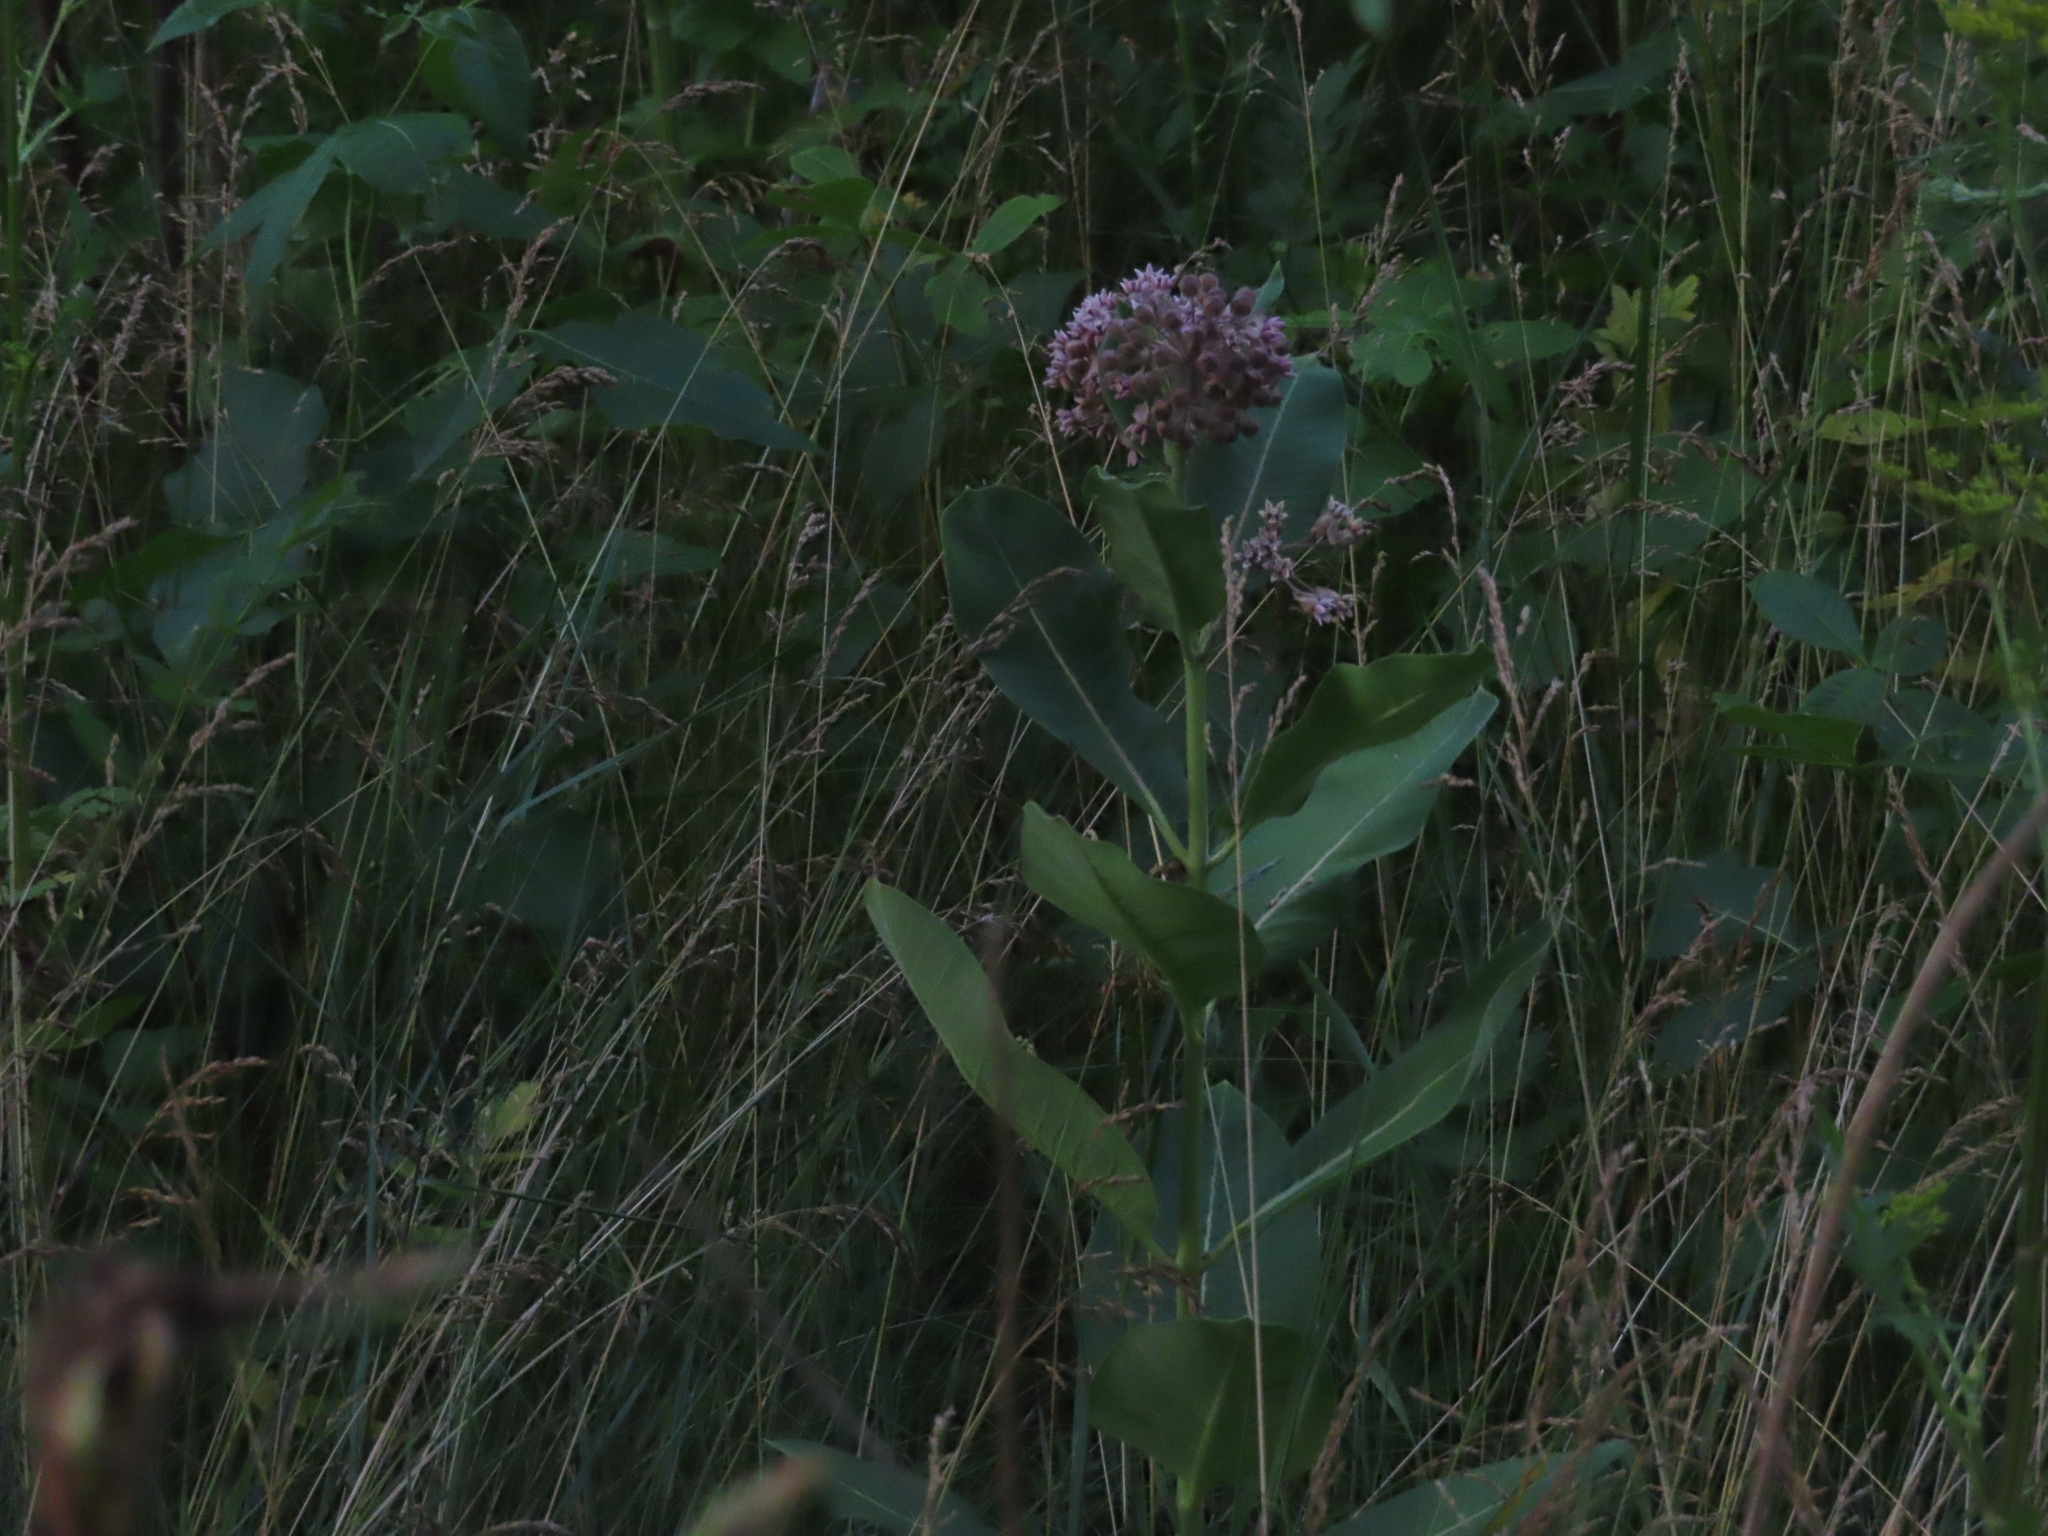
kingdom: Plantae
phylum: Tracheophyta
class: Magnoliopsida
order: Gentianales
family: Apocynaceae
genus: Asclepias
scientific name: Asclepias syriaca
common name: Common milkweed
